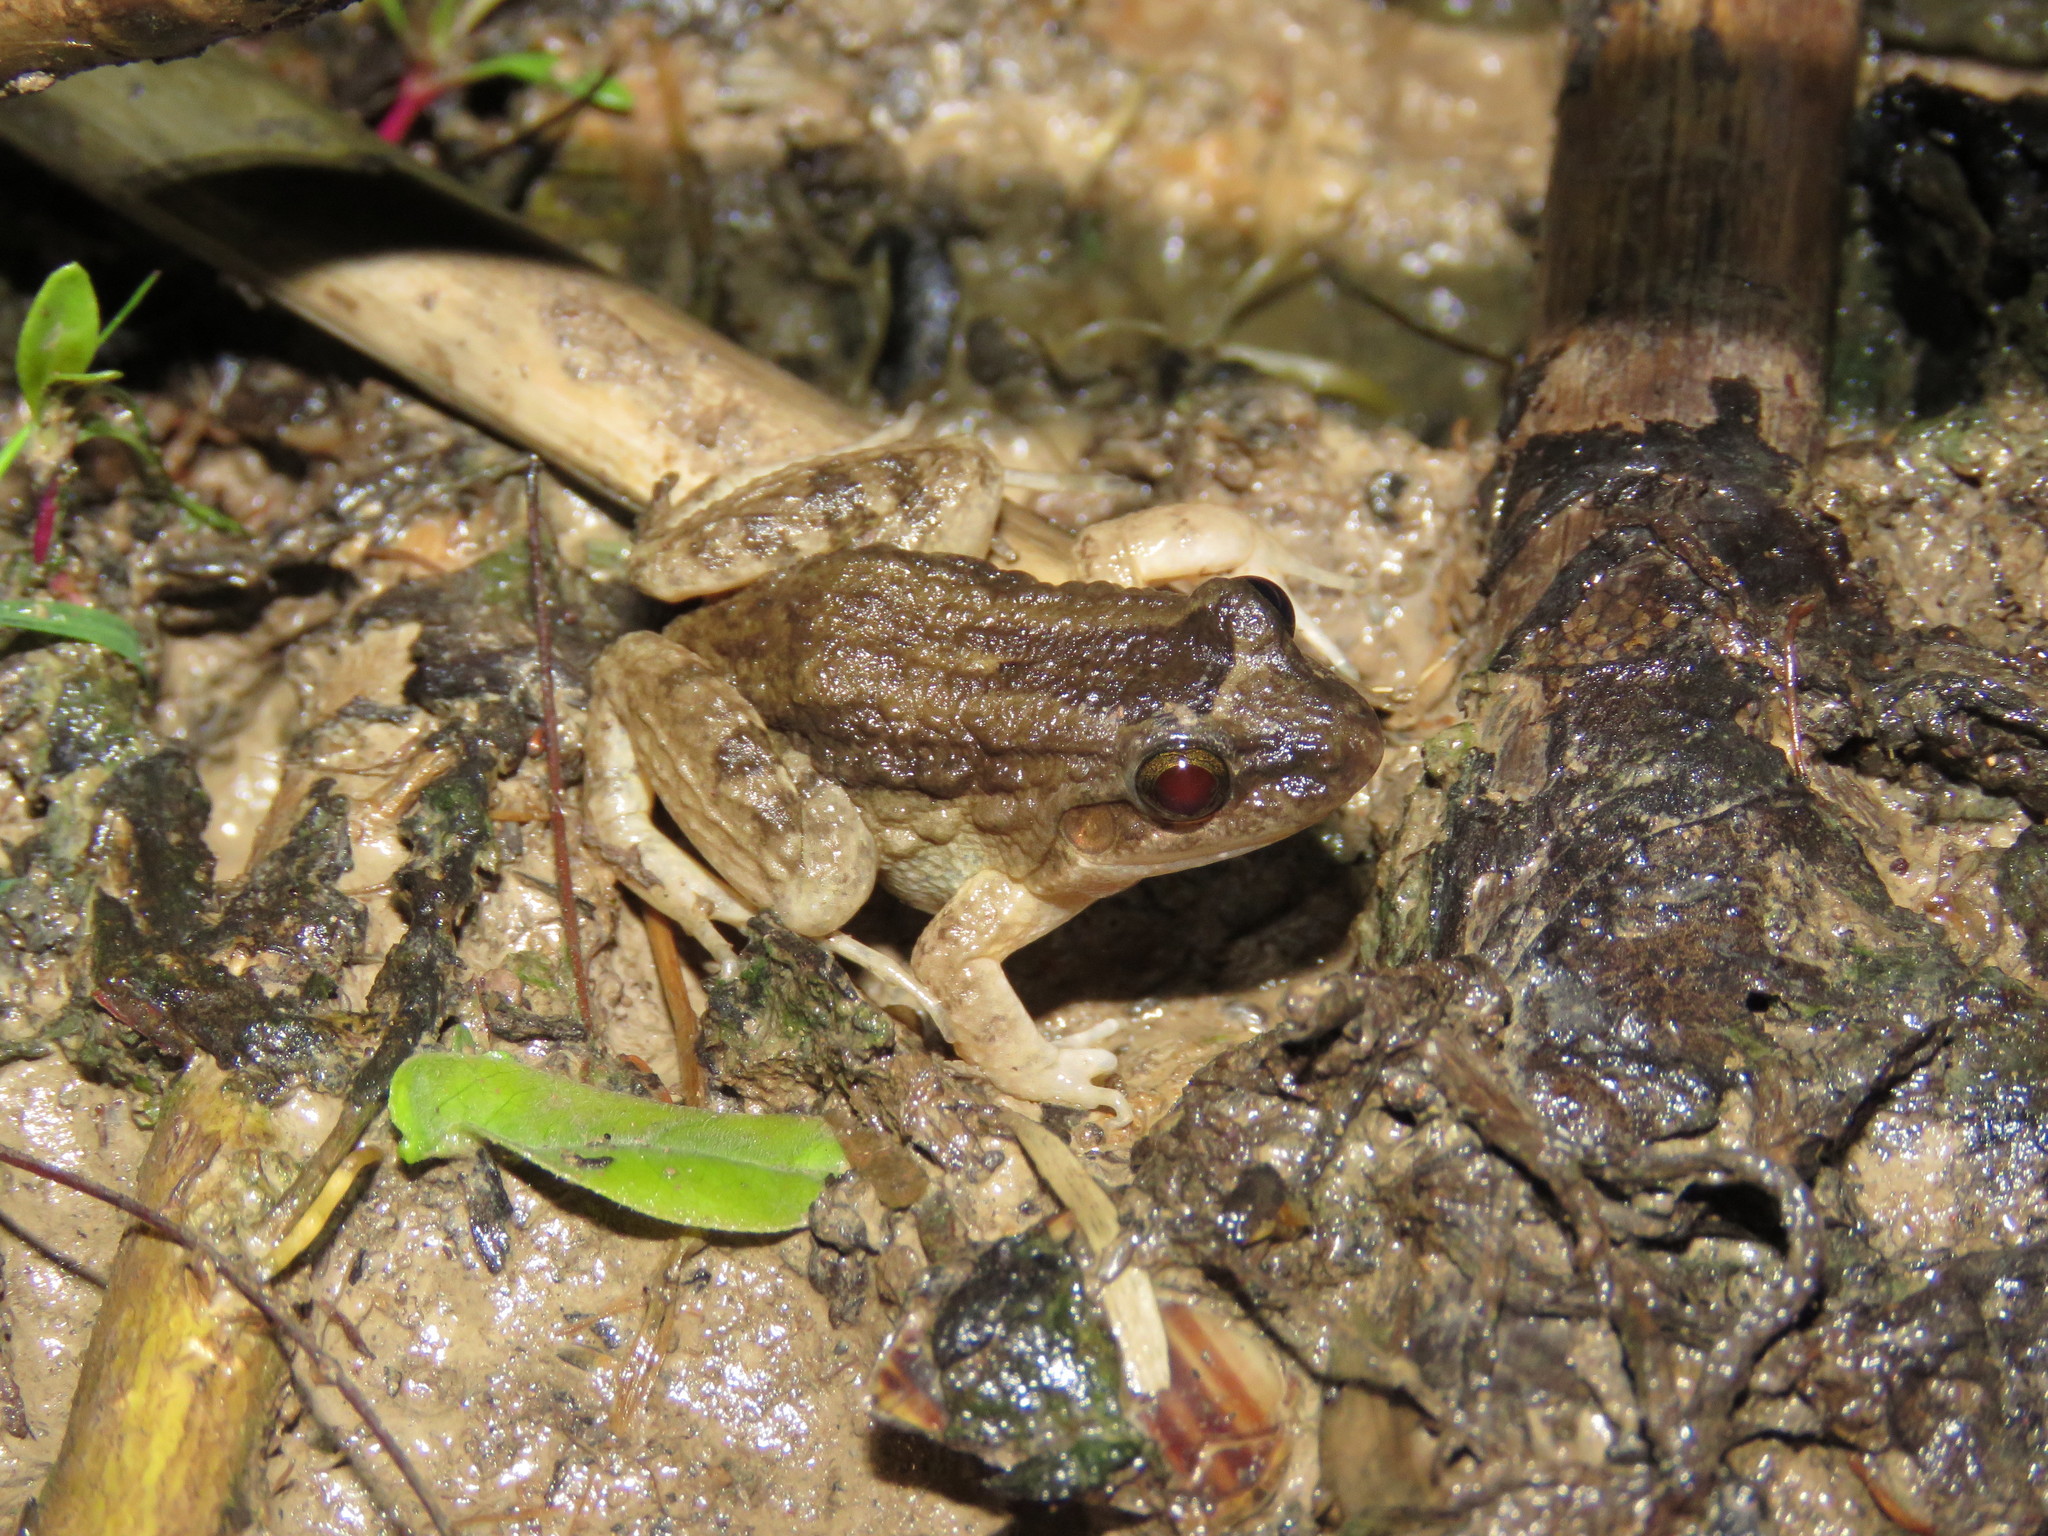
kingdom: Animalia
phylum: Chordata
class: Amphibia
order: Anura
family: Leptodactylidae
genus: Leptodactylus
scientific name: Leptodactylus leptodactyloides
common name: Common thin-toed frog
